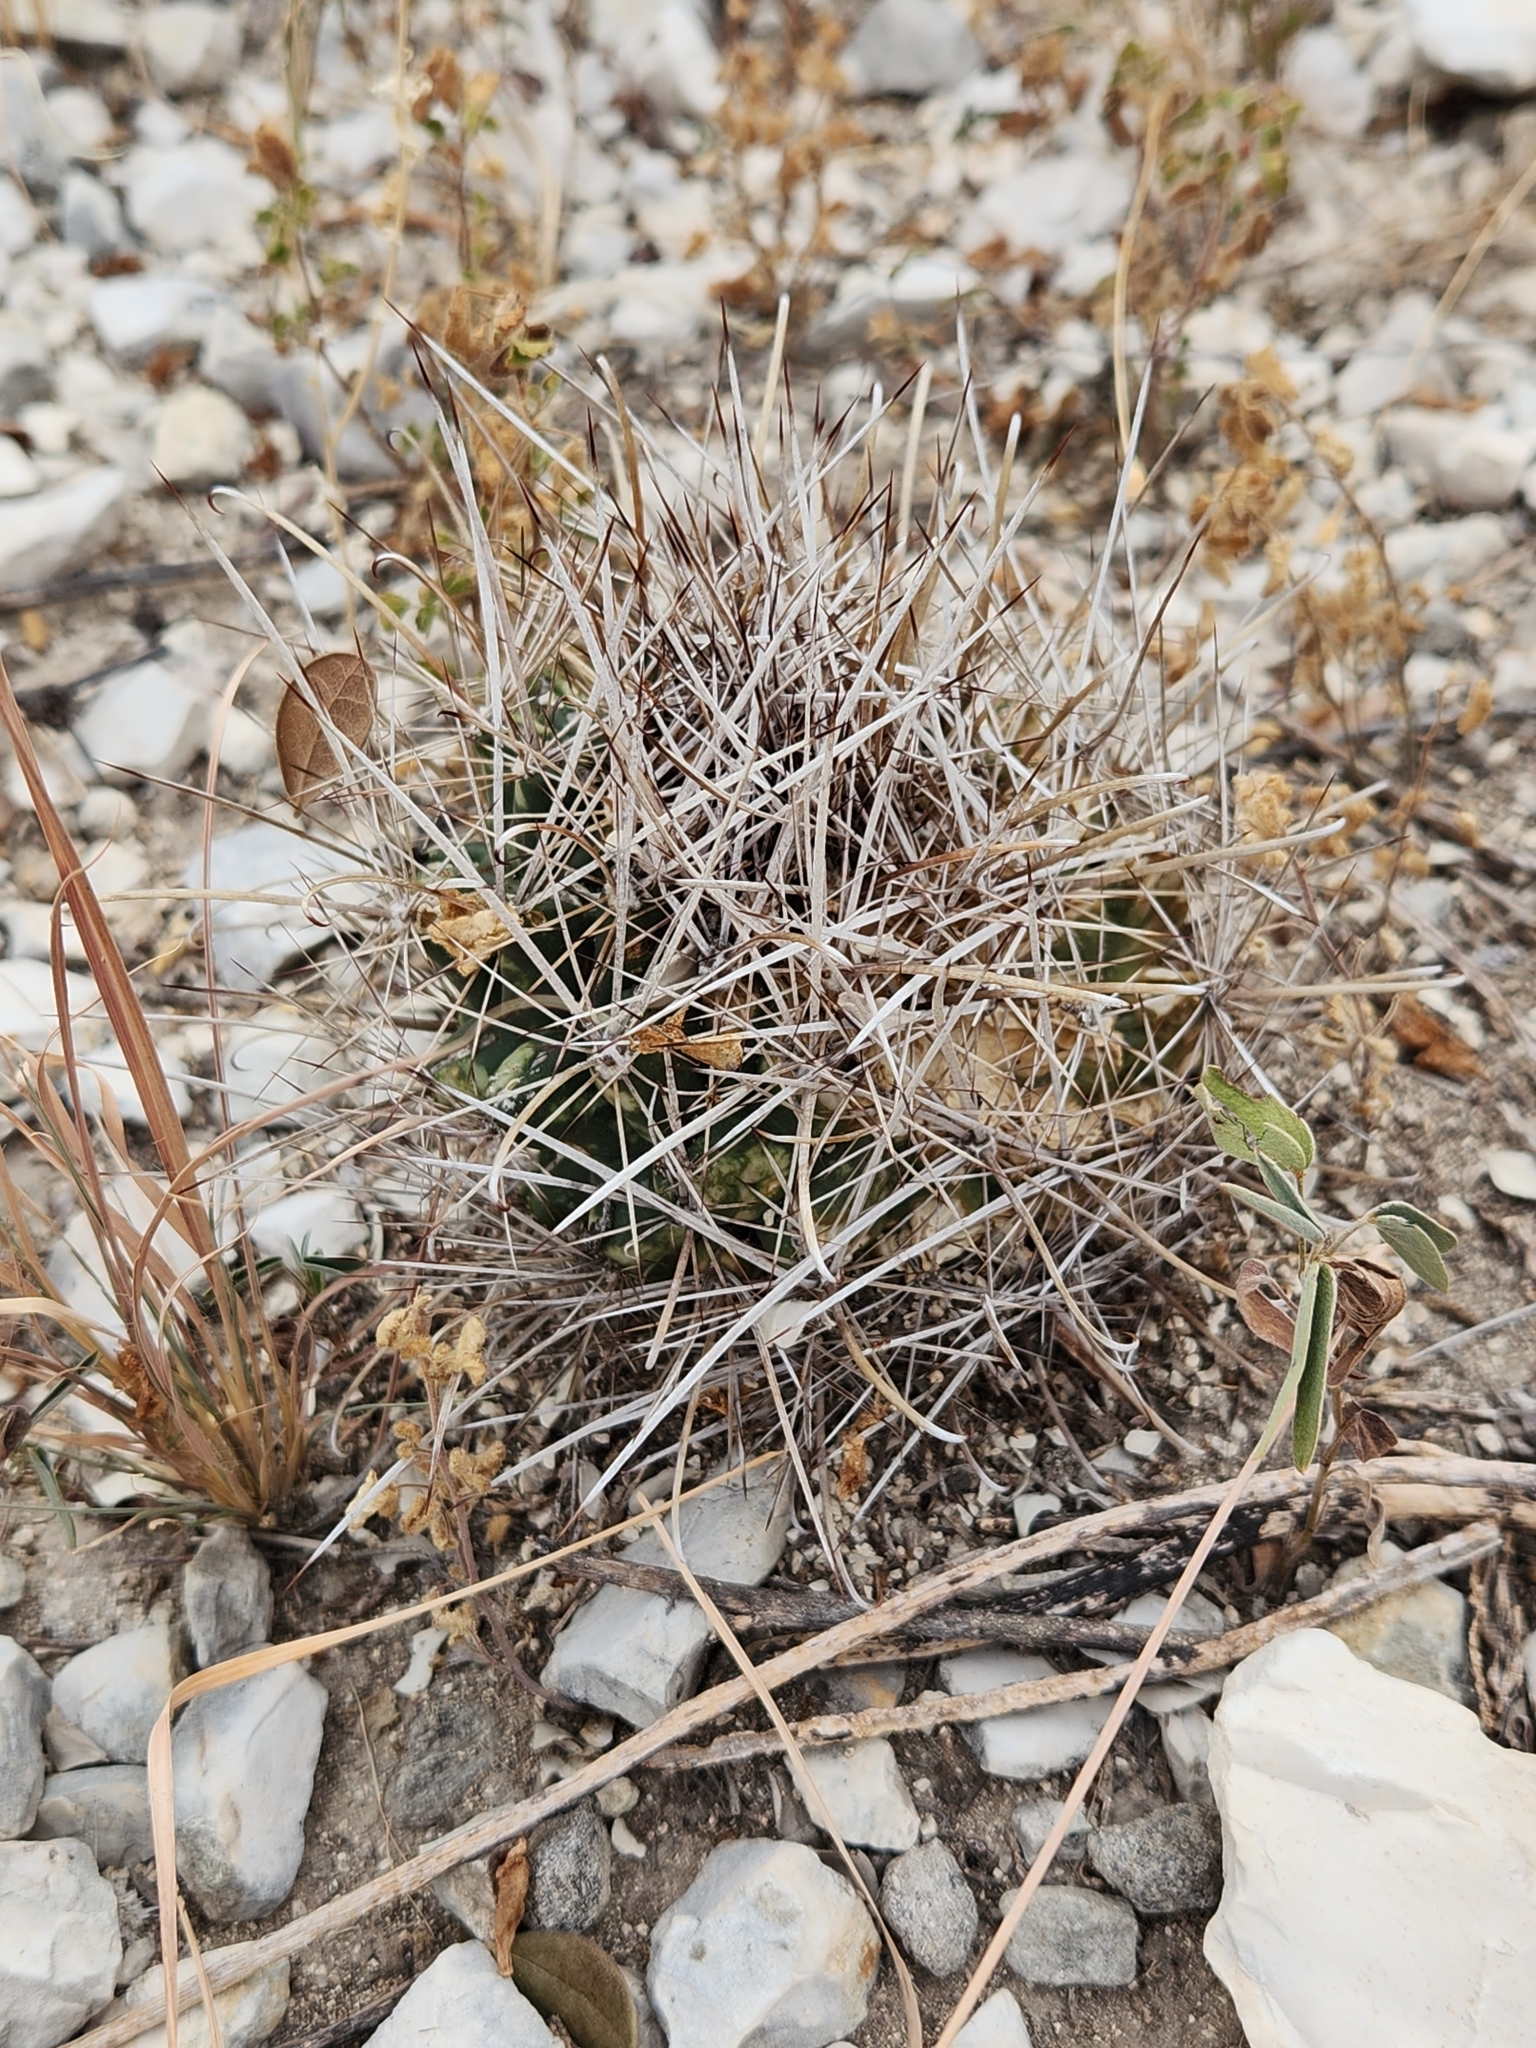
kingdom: Plantae
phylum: Tracheophyta
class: Magnoliopsida
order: Caryophyllales
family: Cactaceae
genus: Sclerocactus
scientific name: Sclerocactus brevihamatus
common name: Engelmann's fishhook cactus
